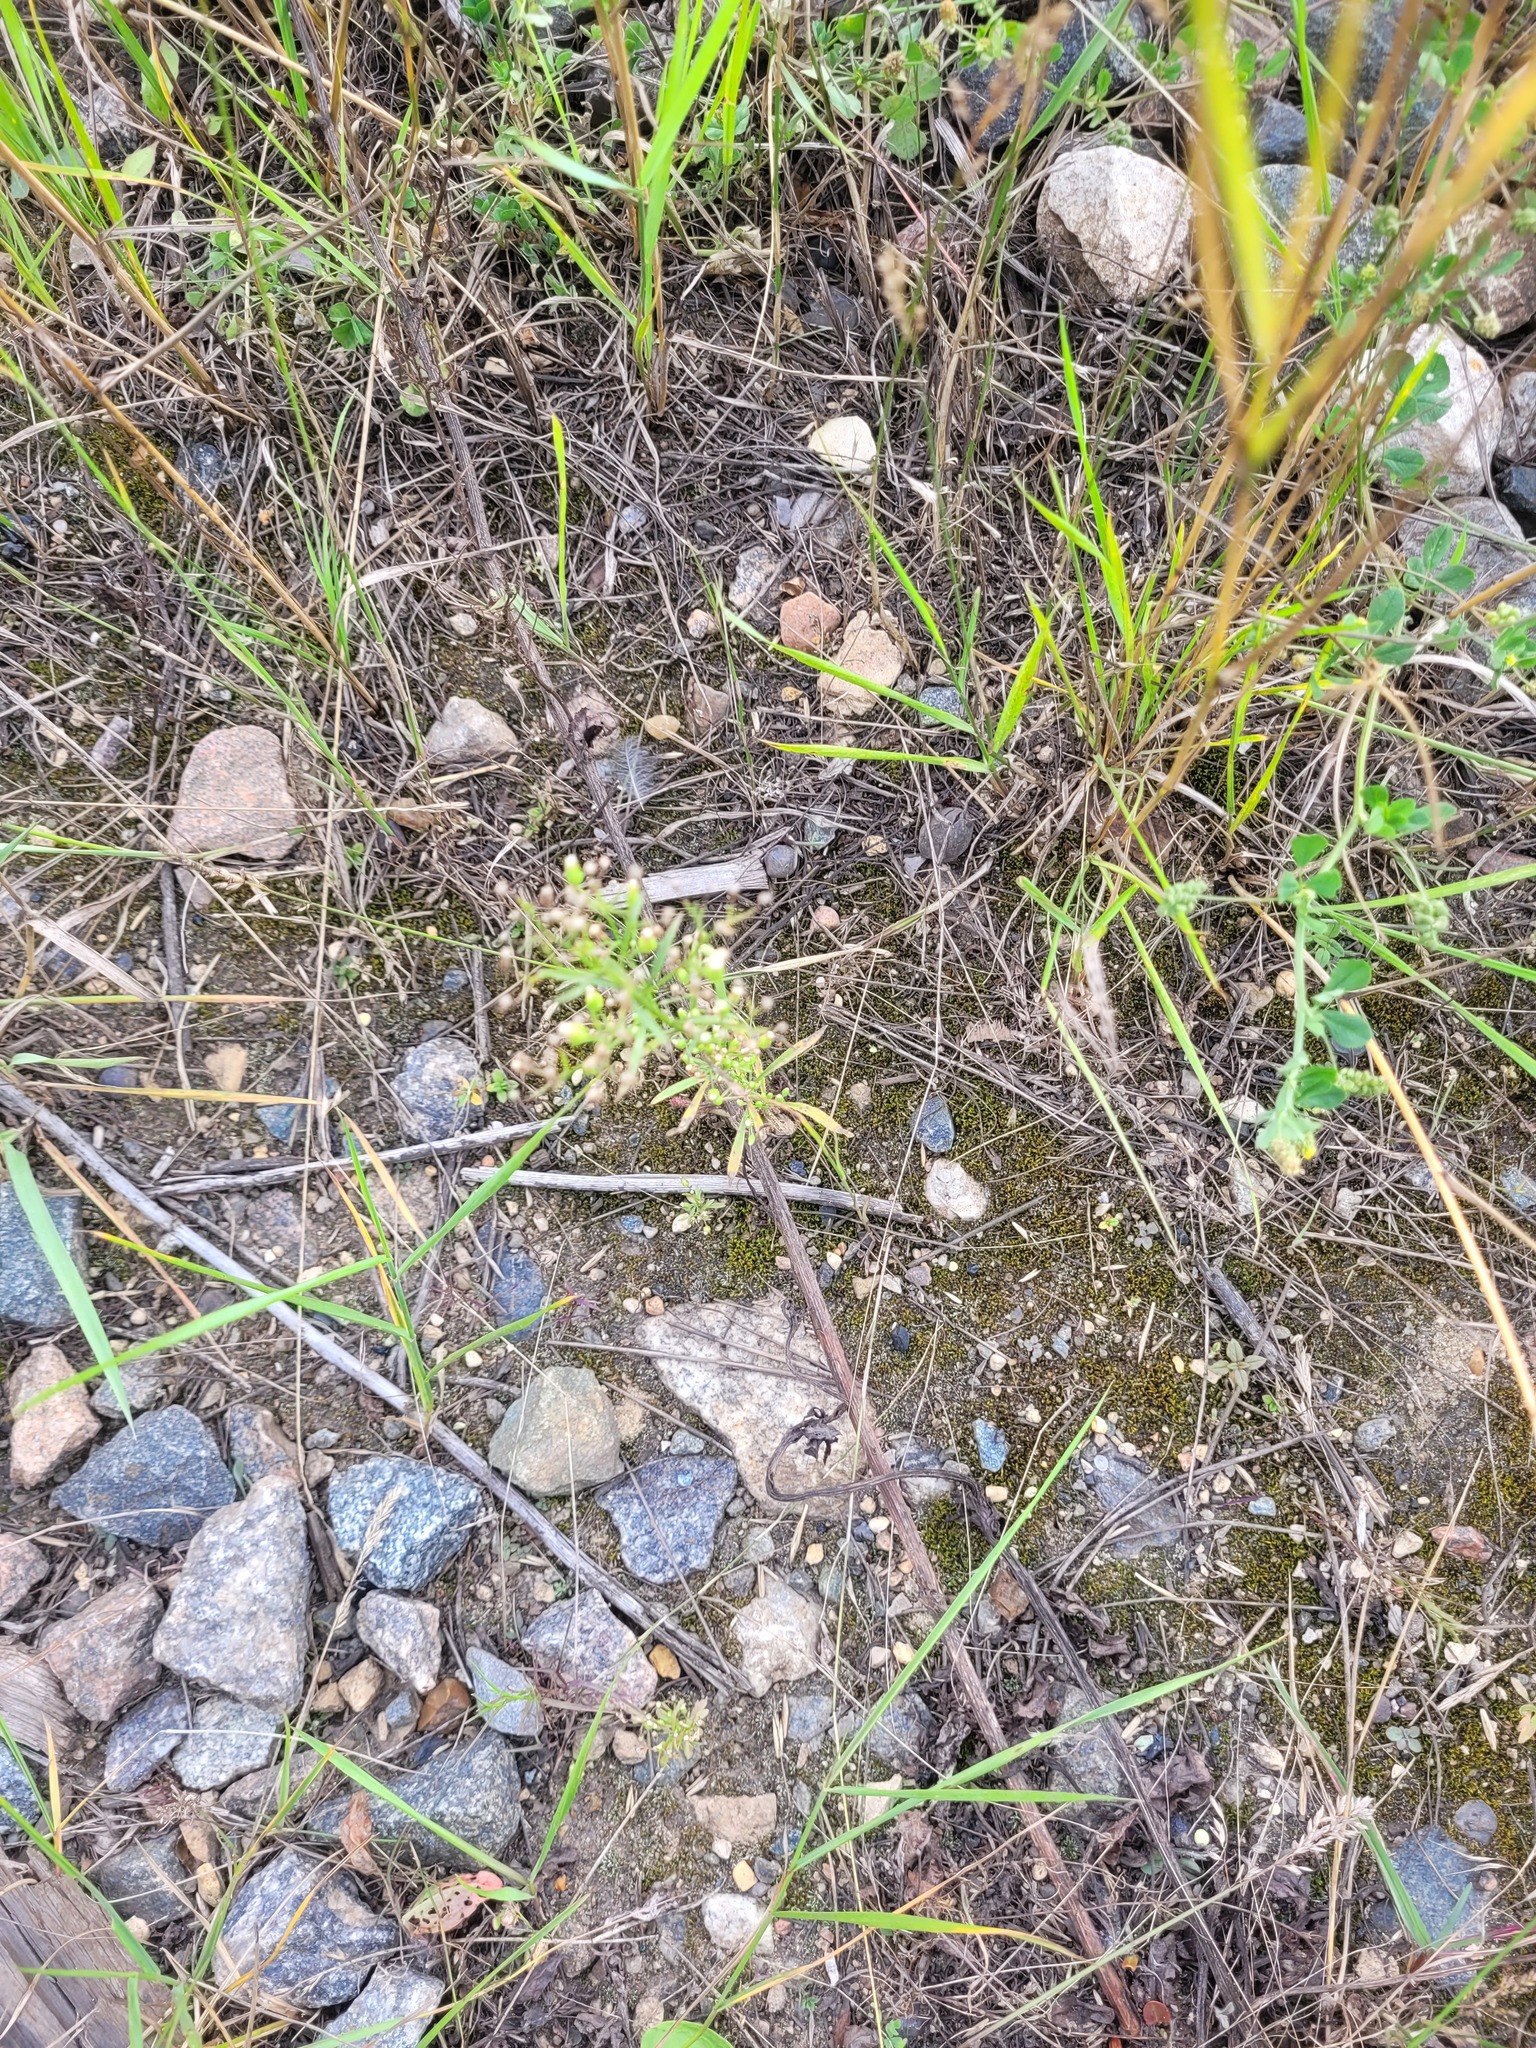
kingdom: Plantae
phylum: Tracheophyta
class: Magnoliopsida
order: Asterales
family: Asteraceae
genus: Erigeron
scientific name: Erigeron canadensis
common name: Canadian fleabane
